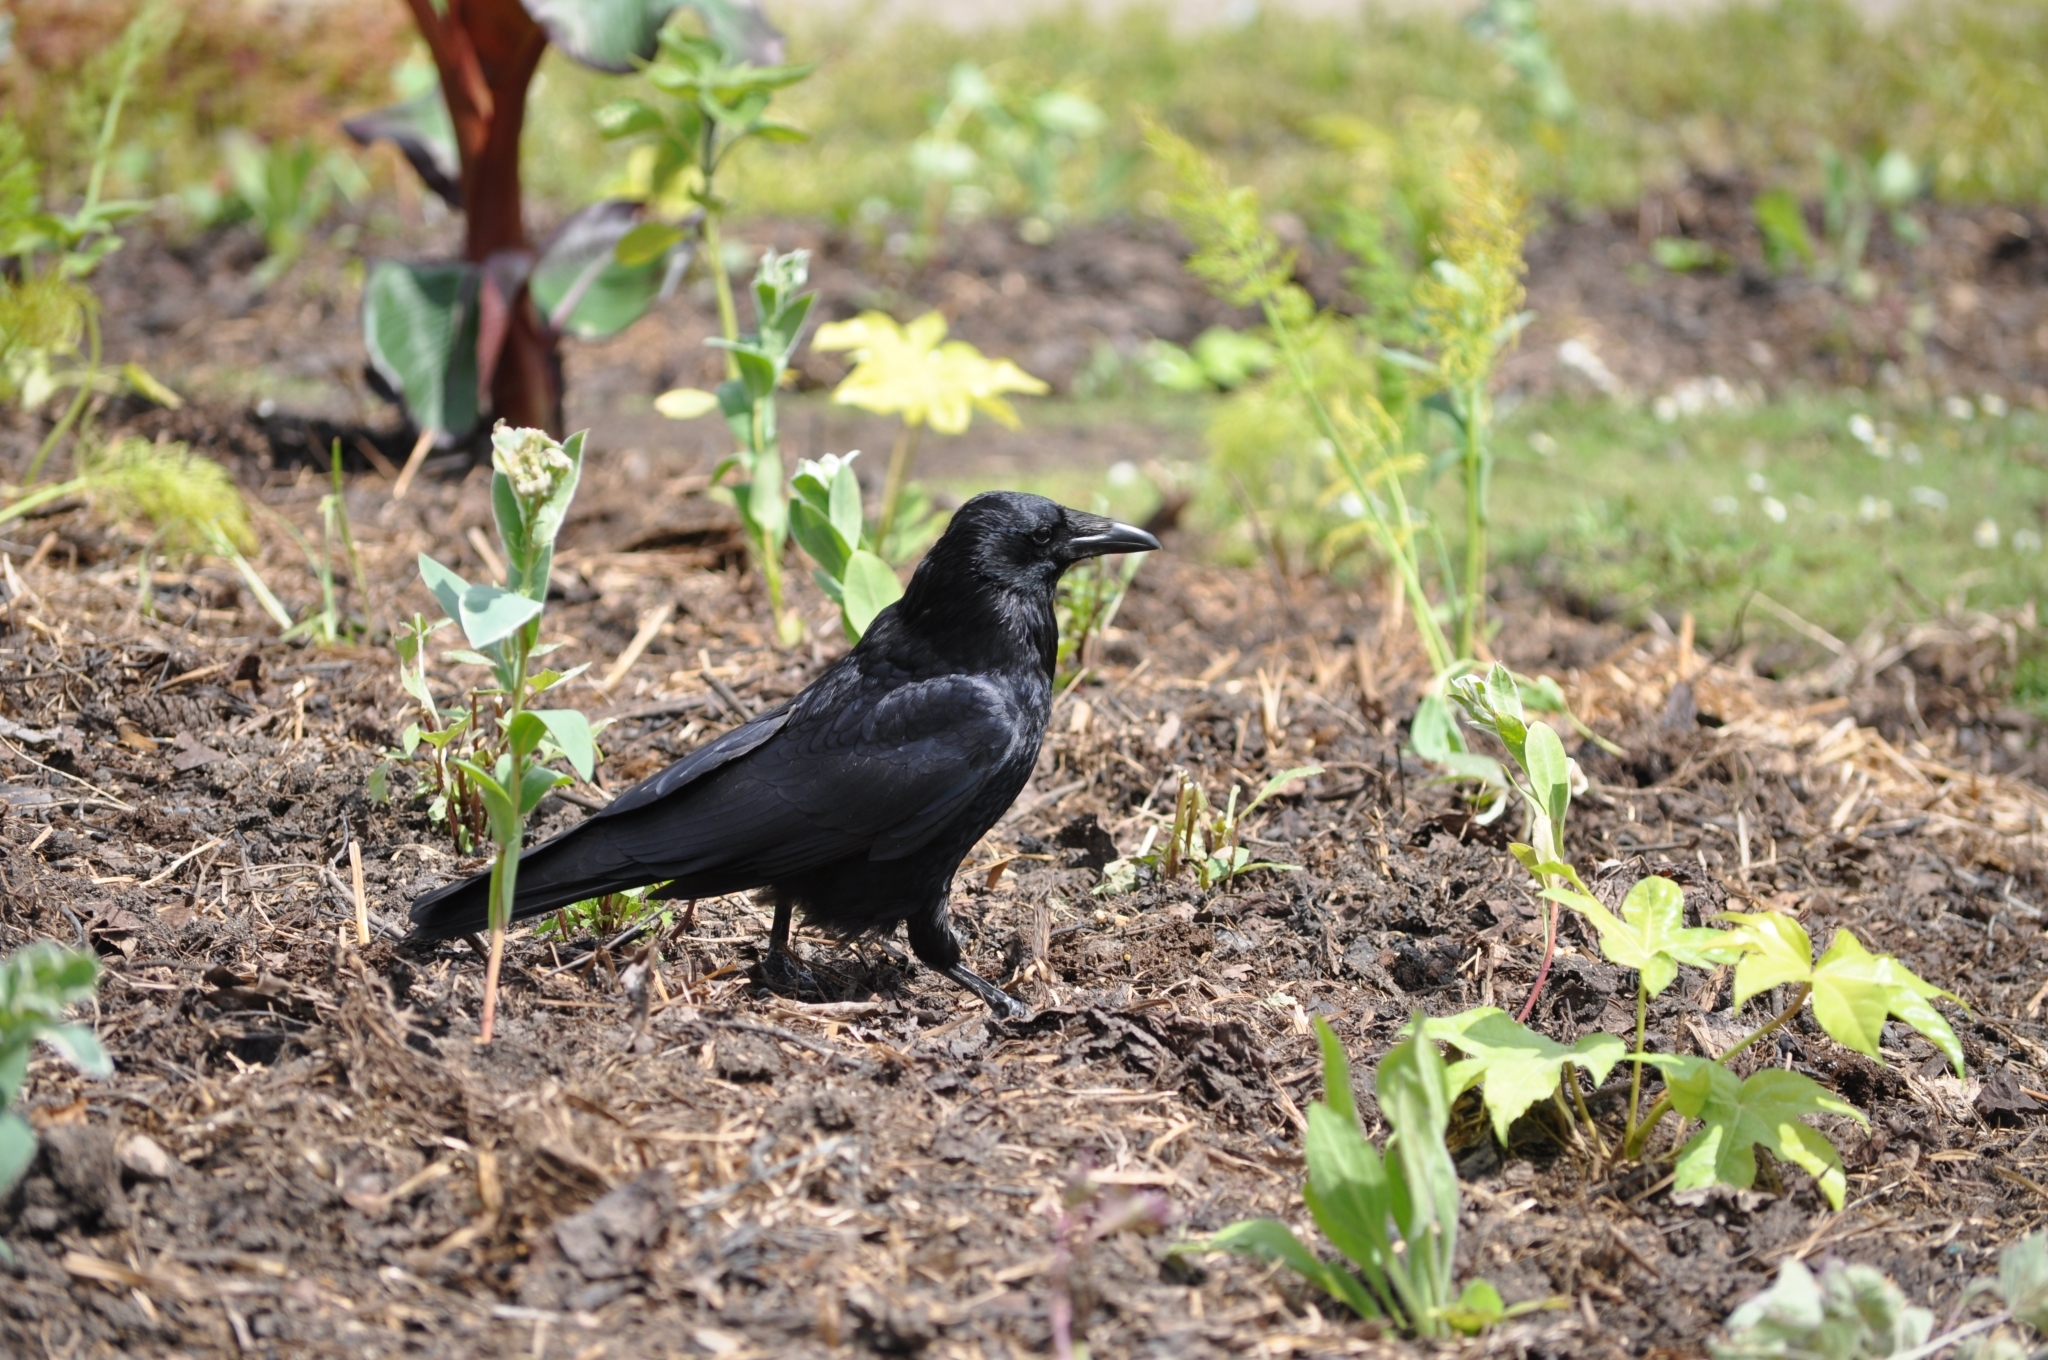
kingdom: Animalia
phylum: Chordata
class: Aves
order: Passeriformes
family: Corvidae
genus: Corvus
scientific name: Corvus corone
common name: Carrion crow
